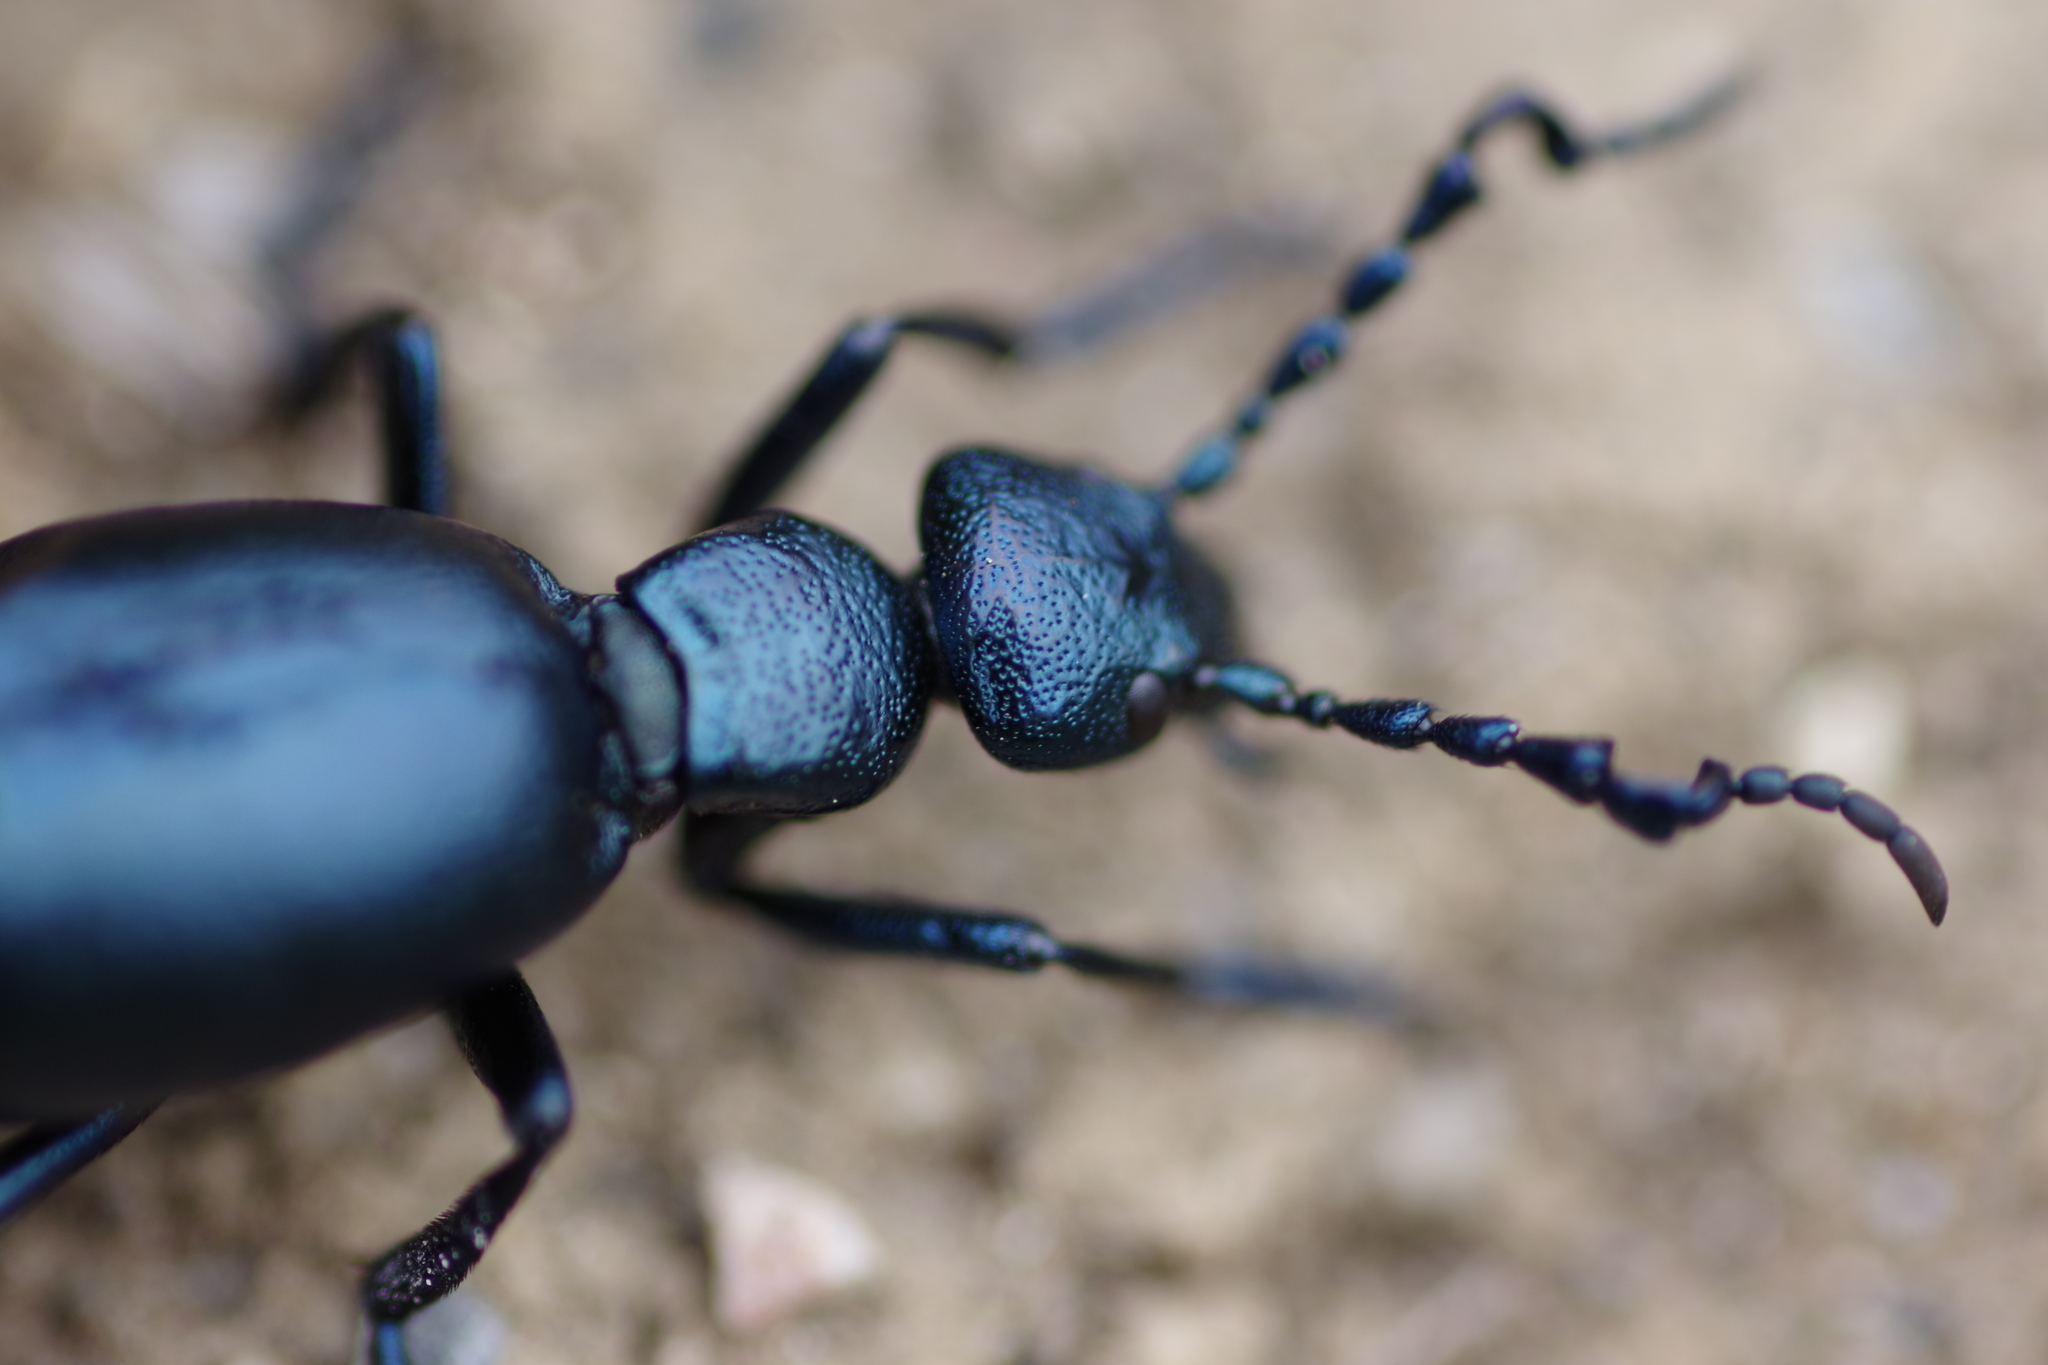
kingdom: Animalia
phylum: Arthropoda
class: Insecta
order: Coleoptera
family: Meloidae
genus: Meloe
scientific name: Meloe violaceus
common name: Violet oil-beetle
